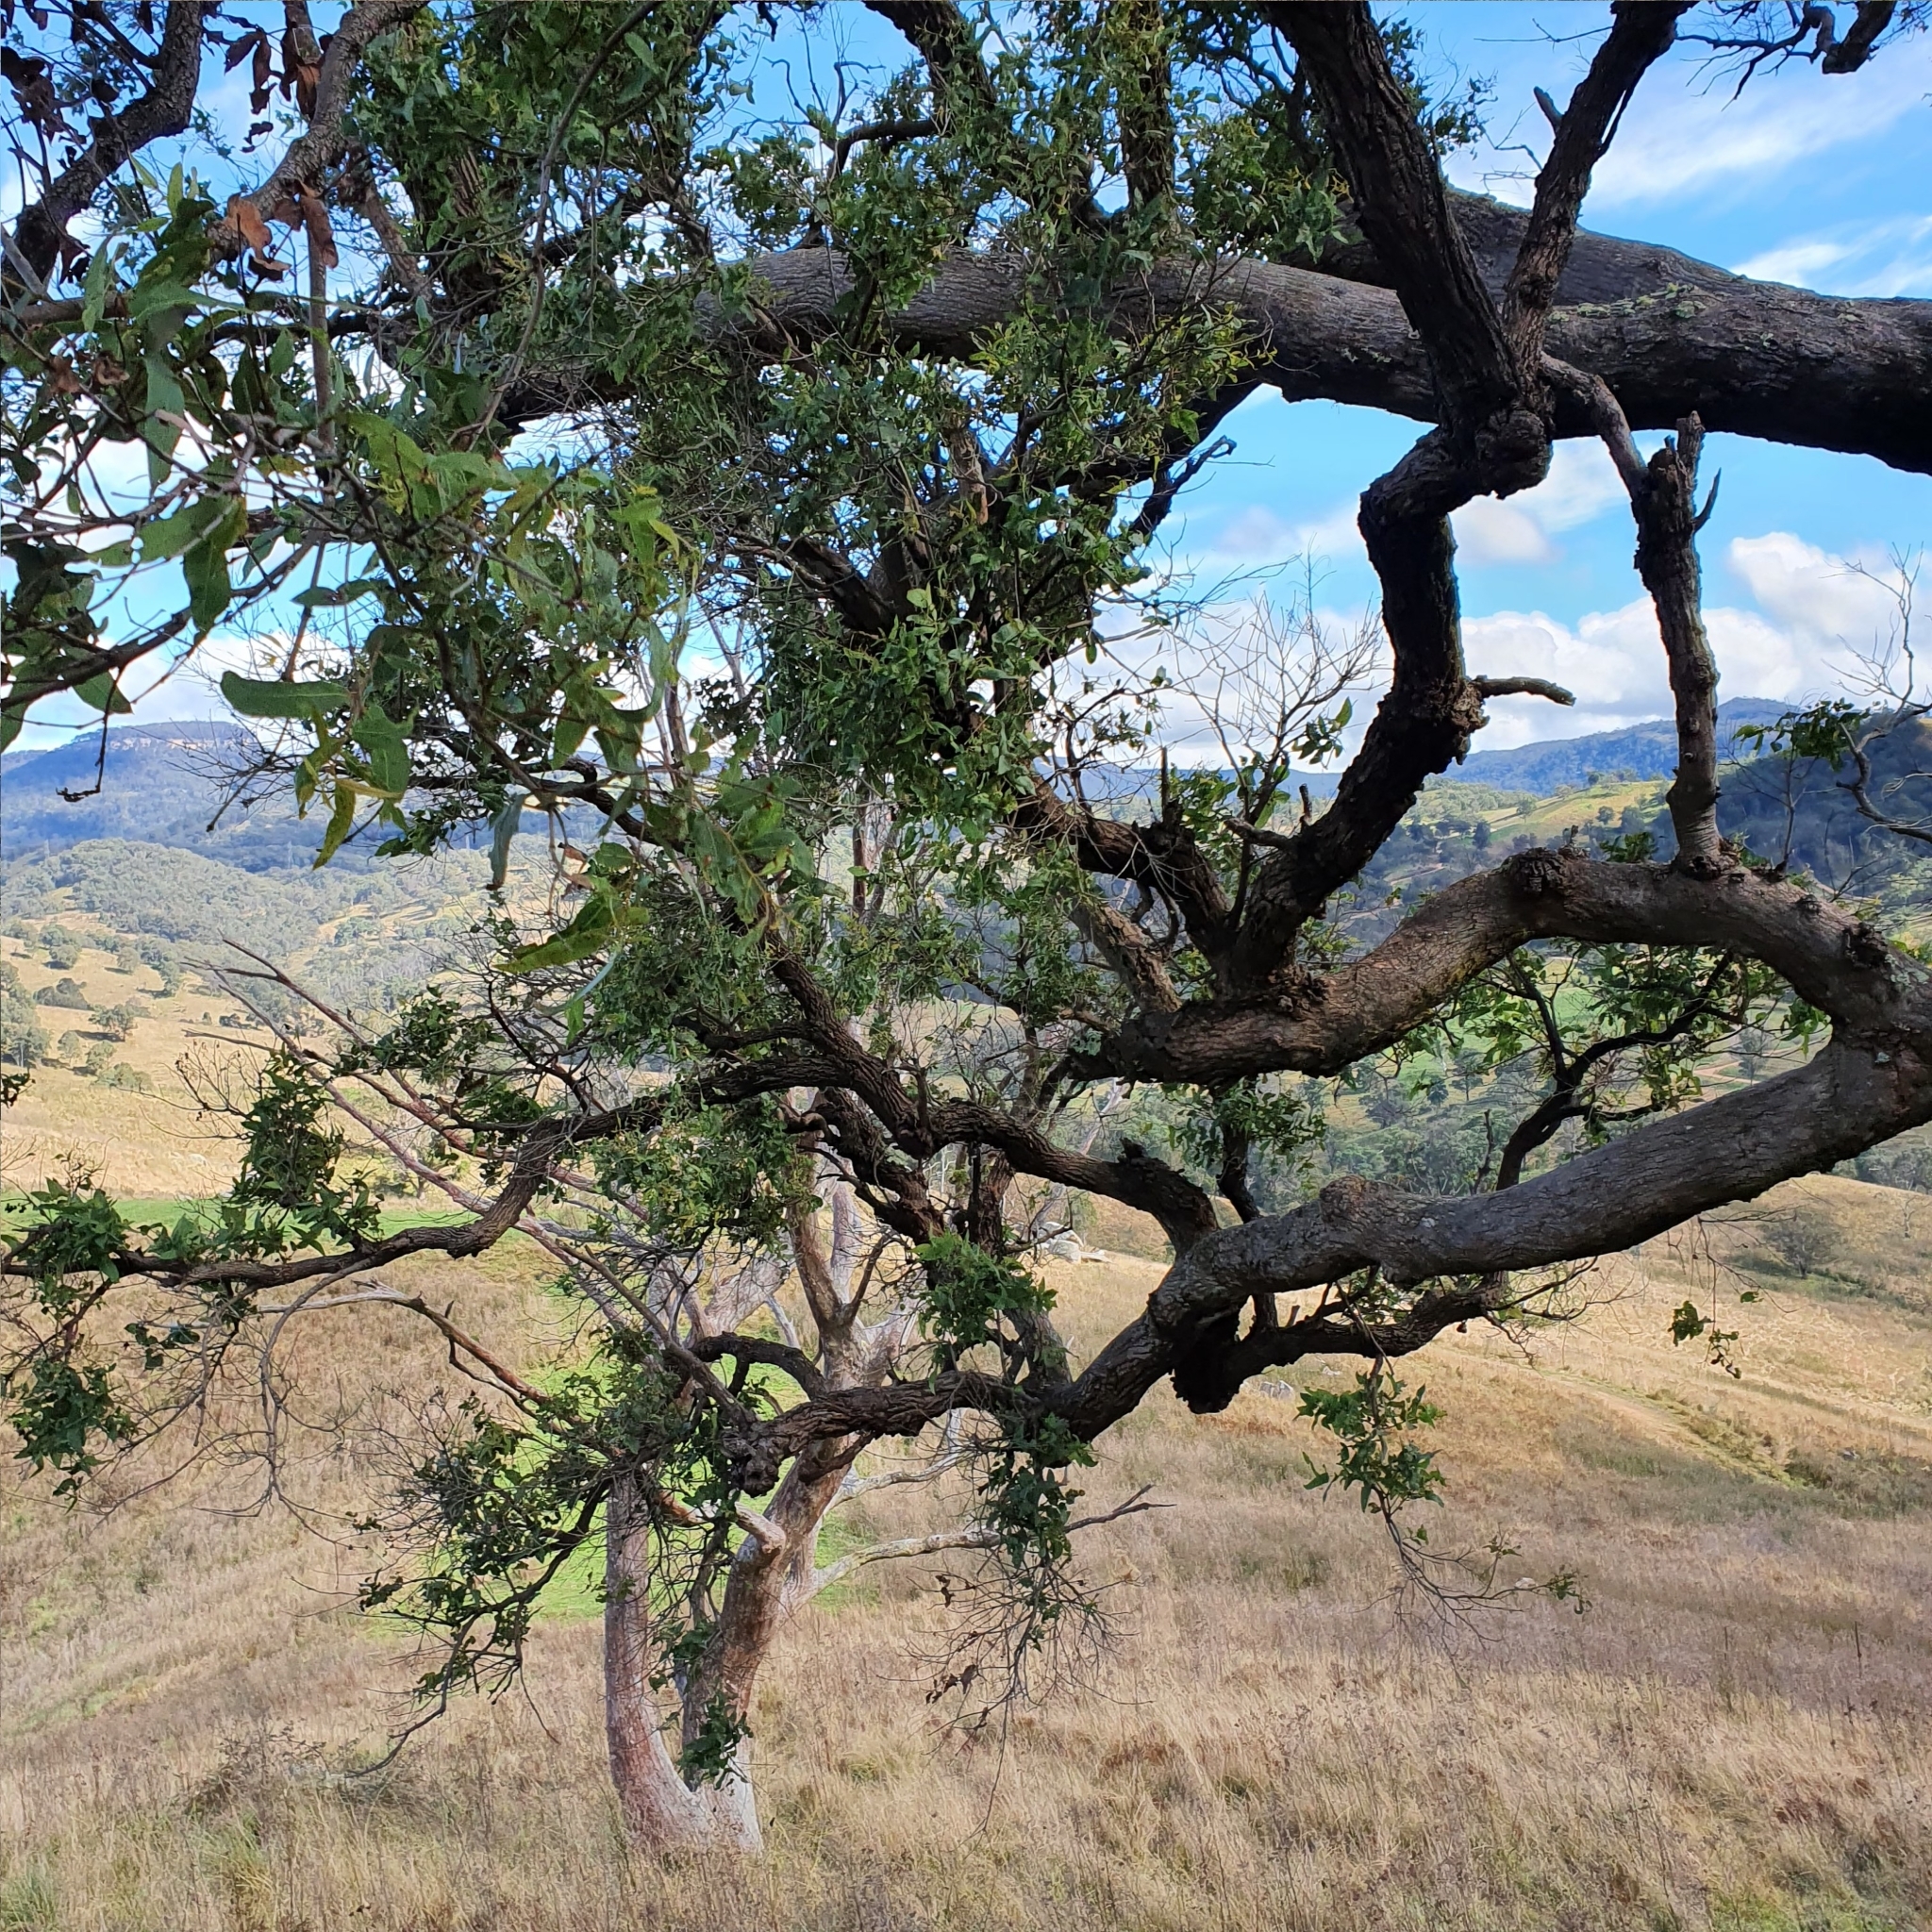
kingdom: Plantae
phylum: Tracheophyta
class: Magnoliopsida
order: Myrtales
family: Myrtaceae
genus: Angophora
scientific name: Angophora subvelutina
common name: Broad-leaved apple
